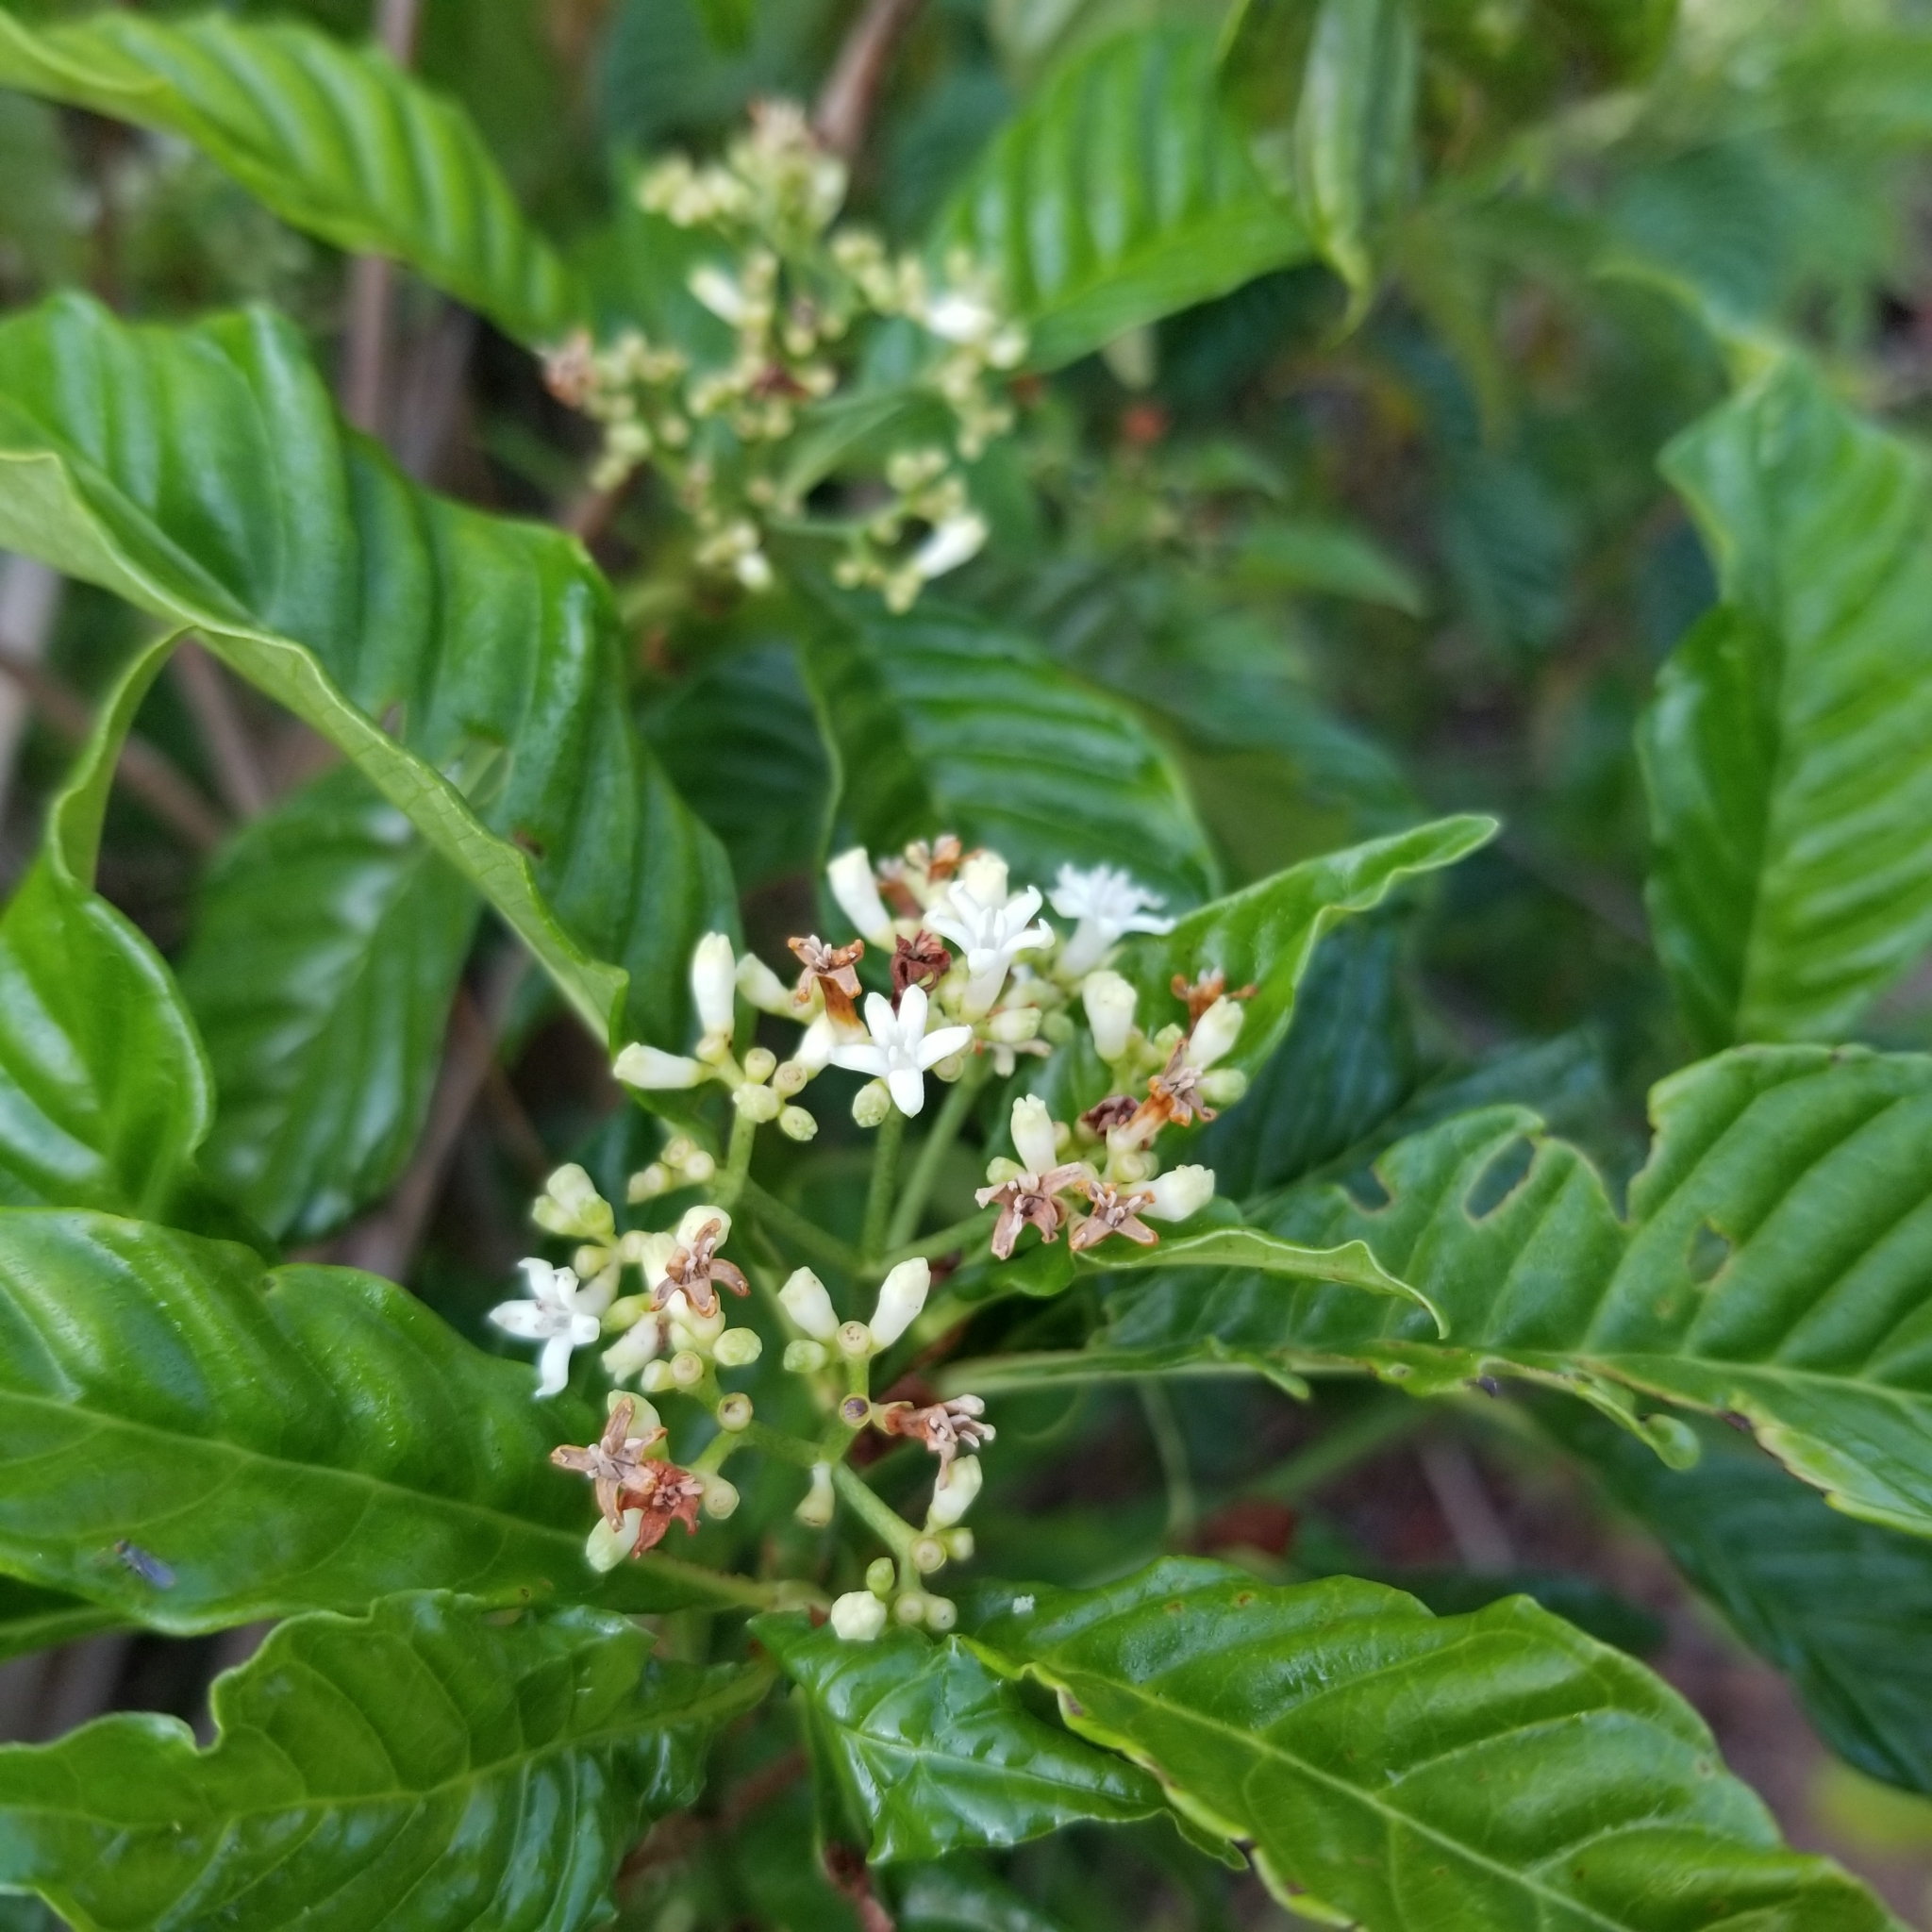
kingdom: Plantae
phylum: Tracheophyta
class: Magnoliopsida
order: Gentianales
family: Rubiaceae
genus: Psychotria
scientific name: Psychotria nervosa
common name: Bastard cankerberry
